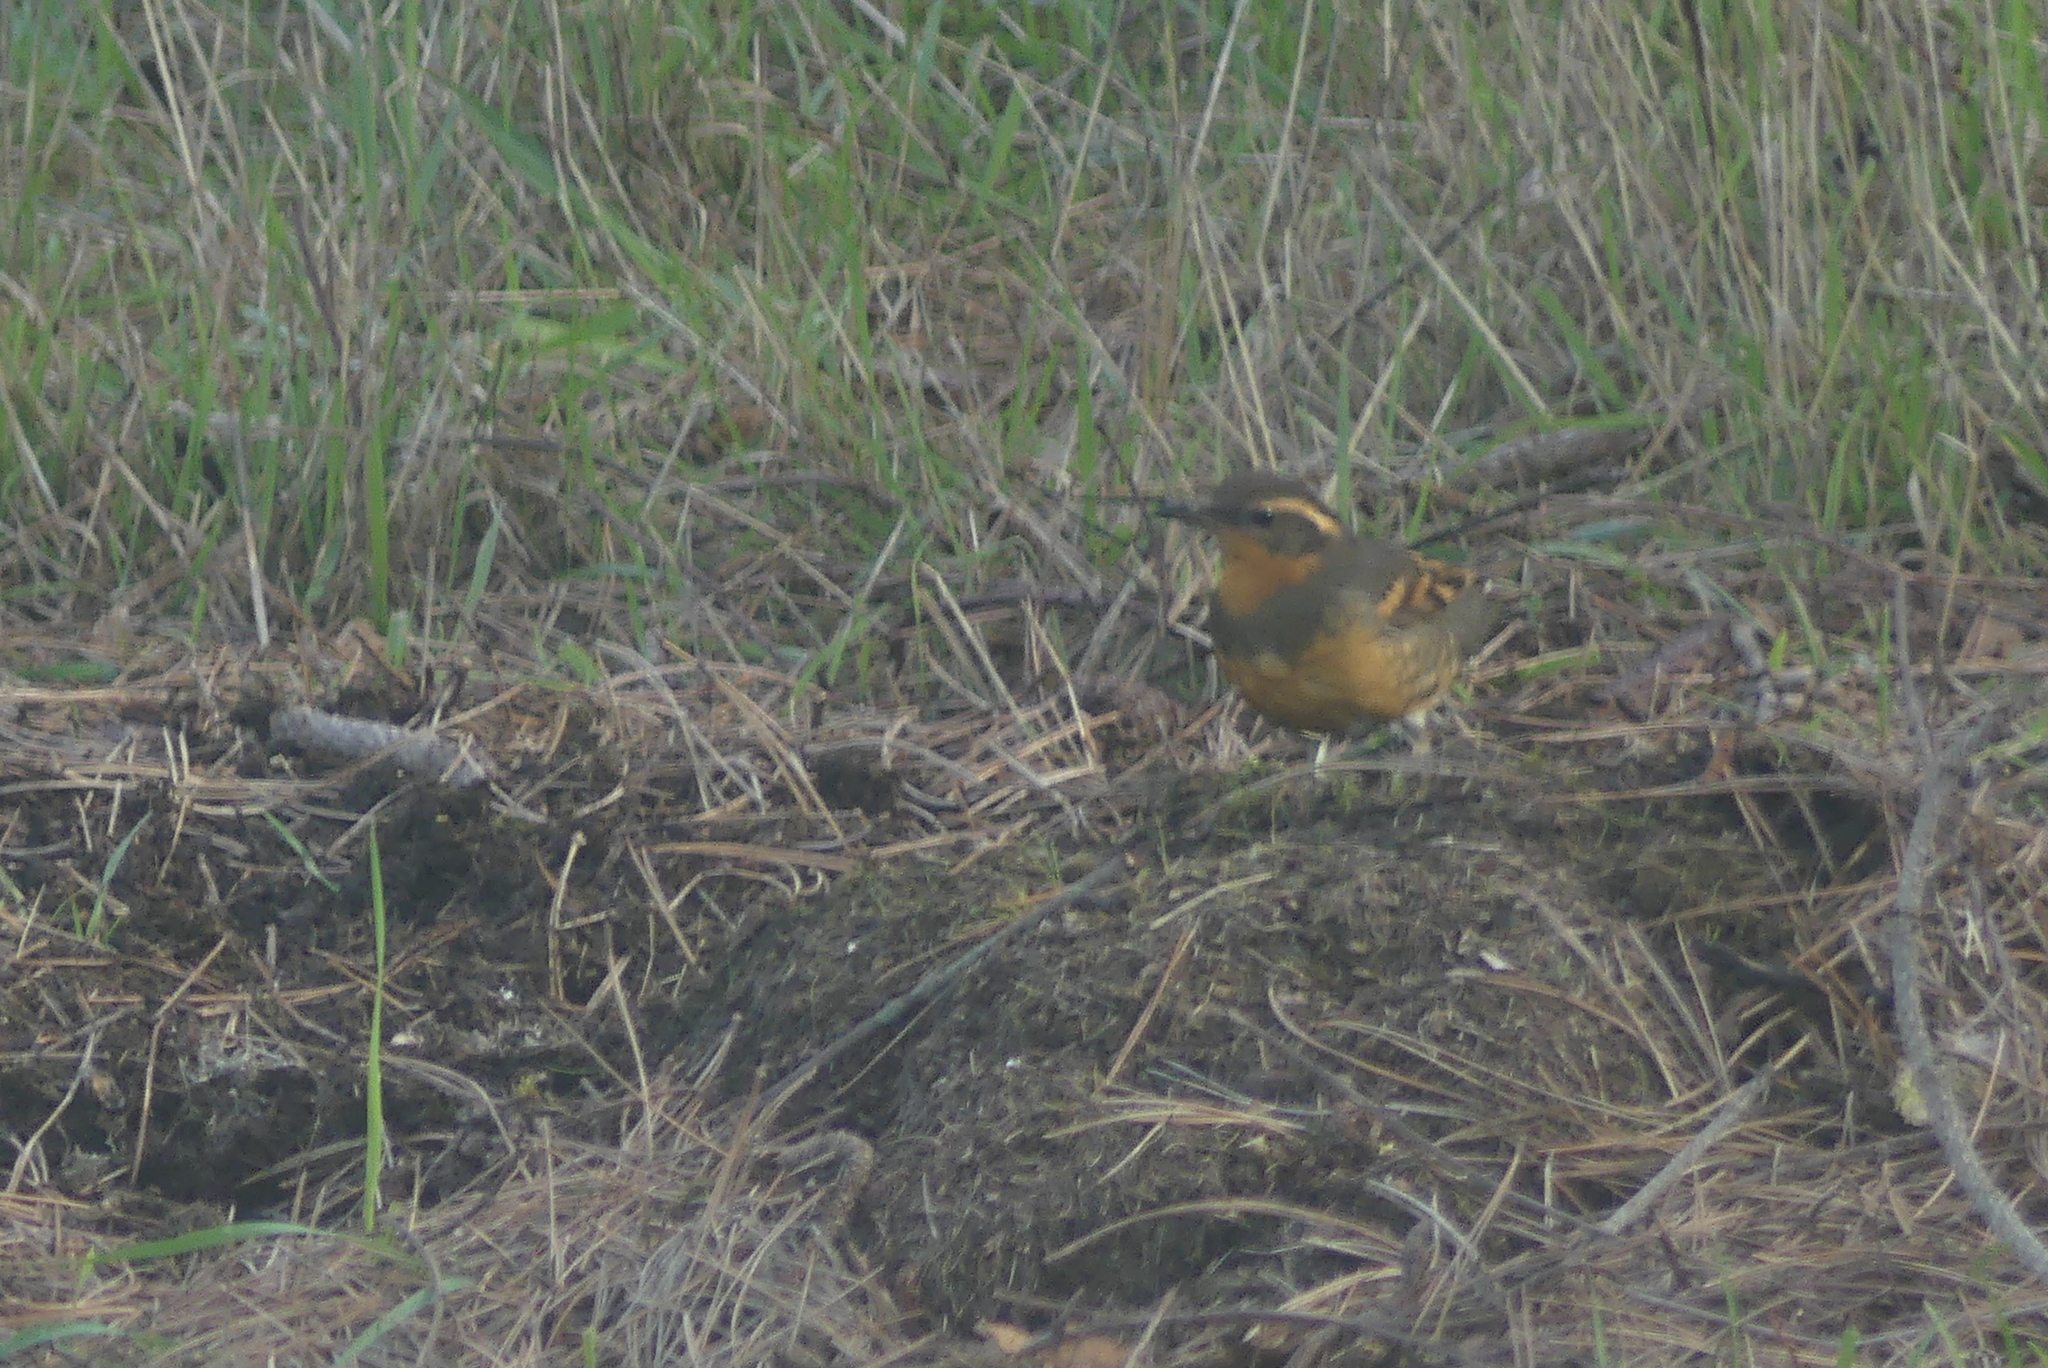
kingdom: Animalia
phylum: Chordata
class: Aves
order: Passeriformes
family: Turdidae
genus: Ixoreus
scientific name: Ixoreus naevius
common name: Varied thrush
